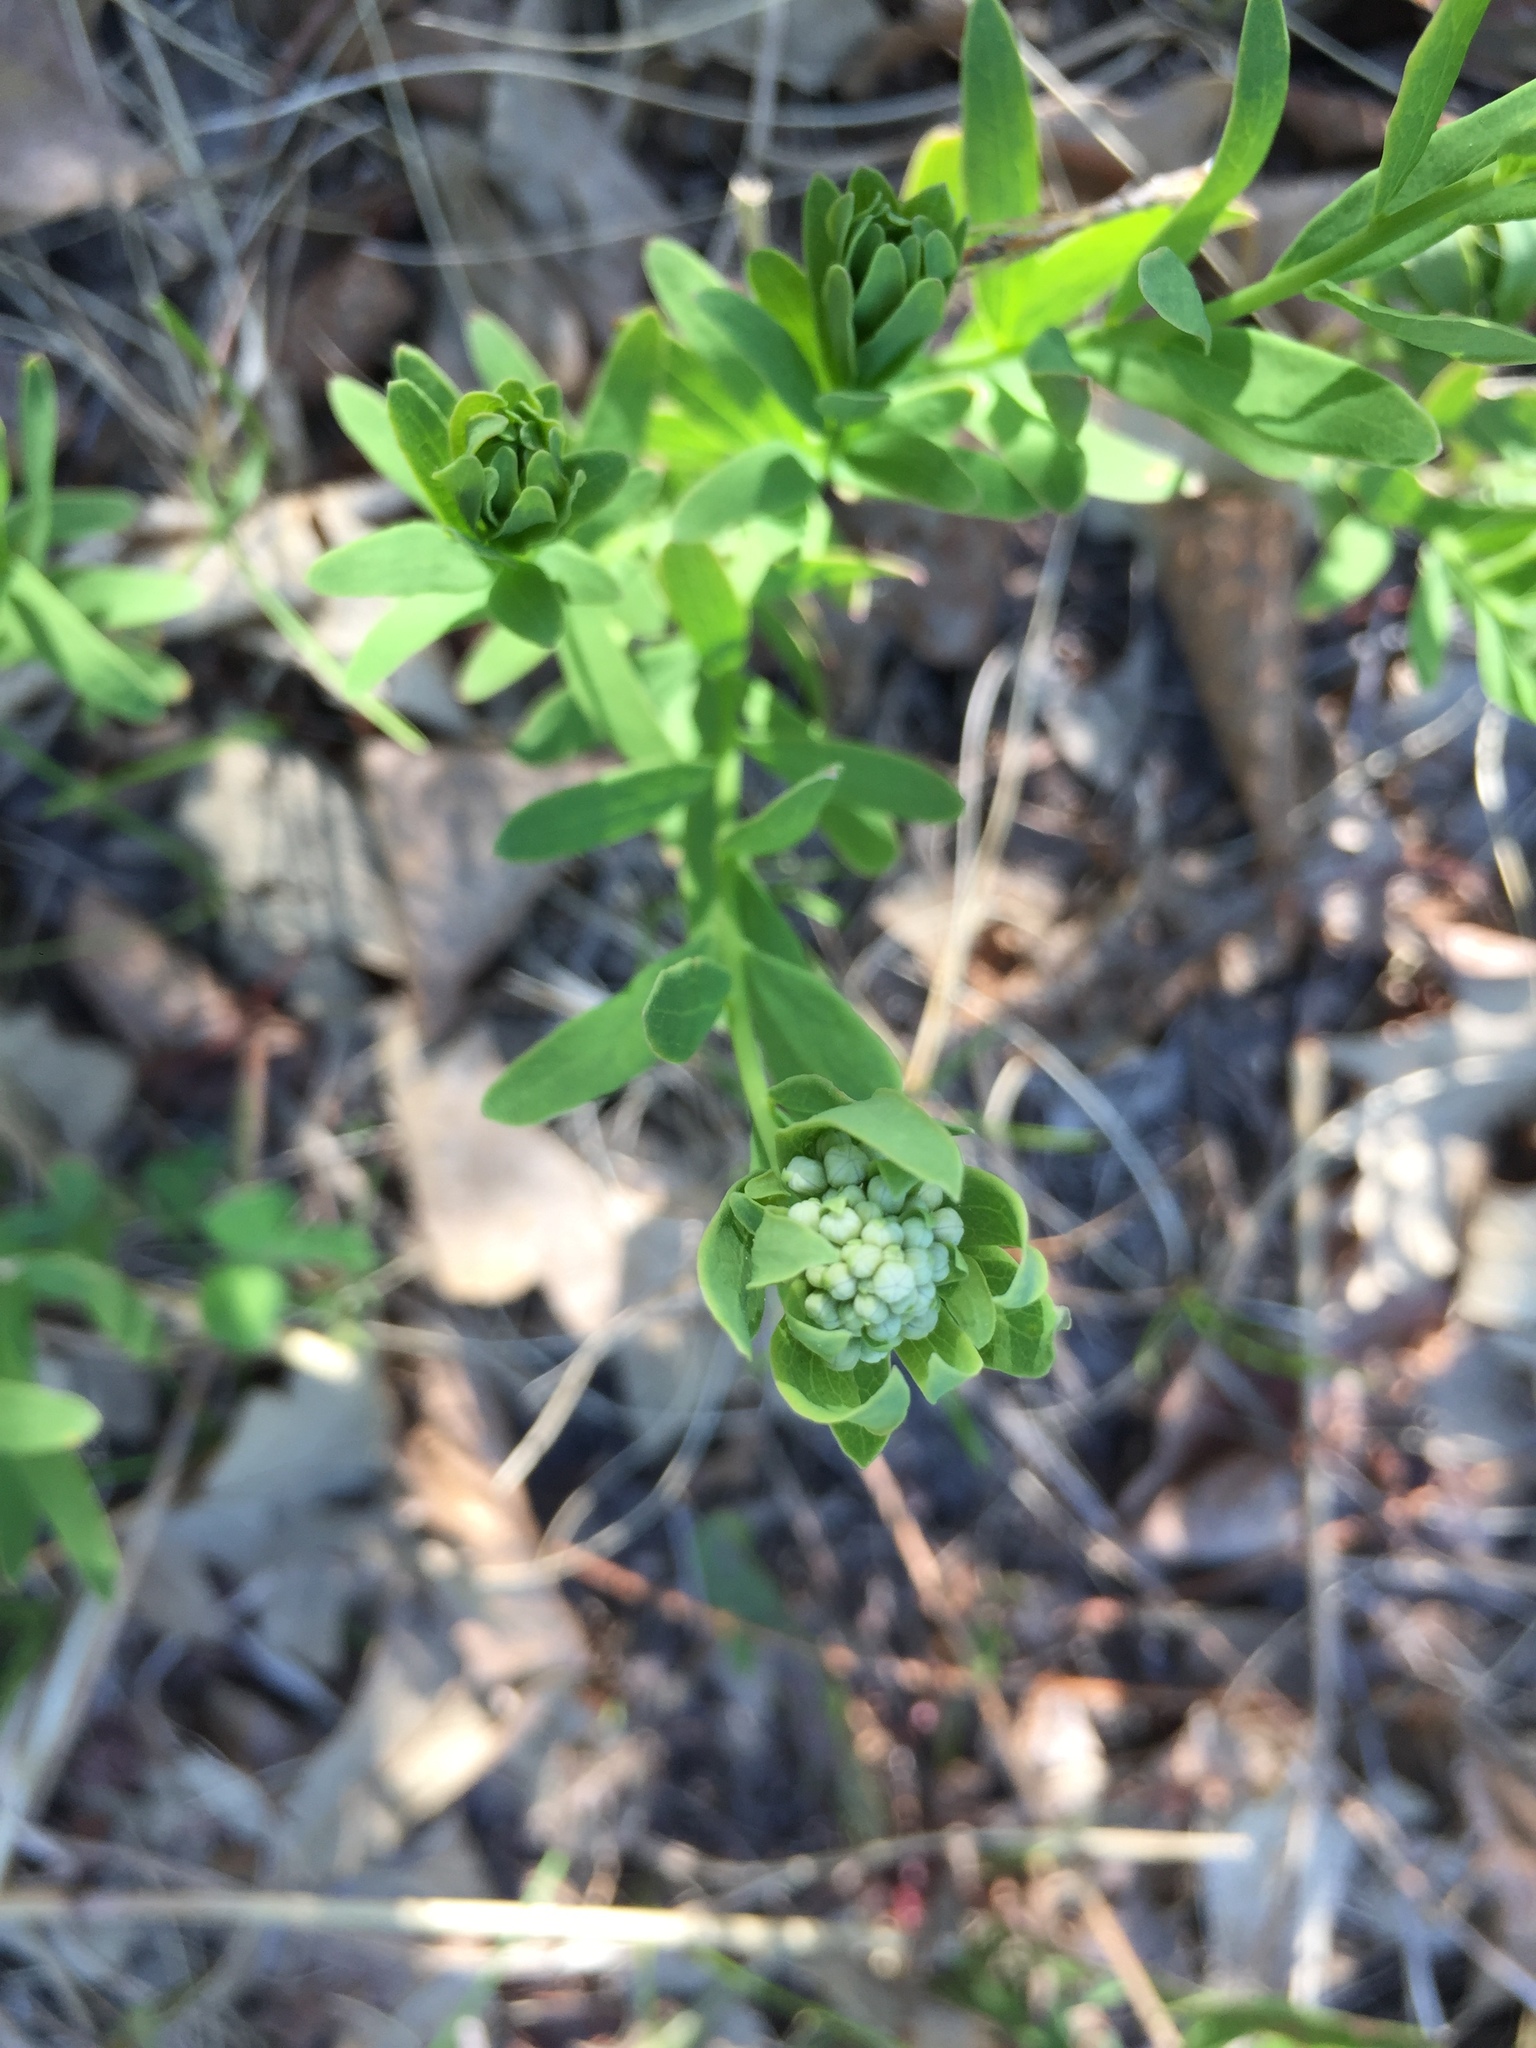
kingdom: Plantae
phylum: Tracheophyta
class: Magnoliopsida
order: Santalales
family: Comandraceae
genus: Comandra
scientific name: Comandra umbellata
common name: Bastard toadflax
